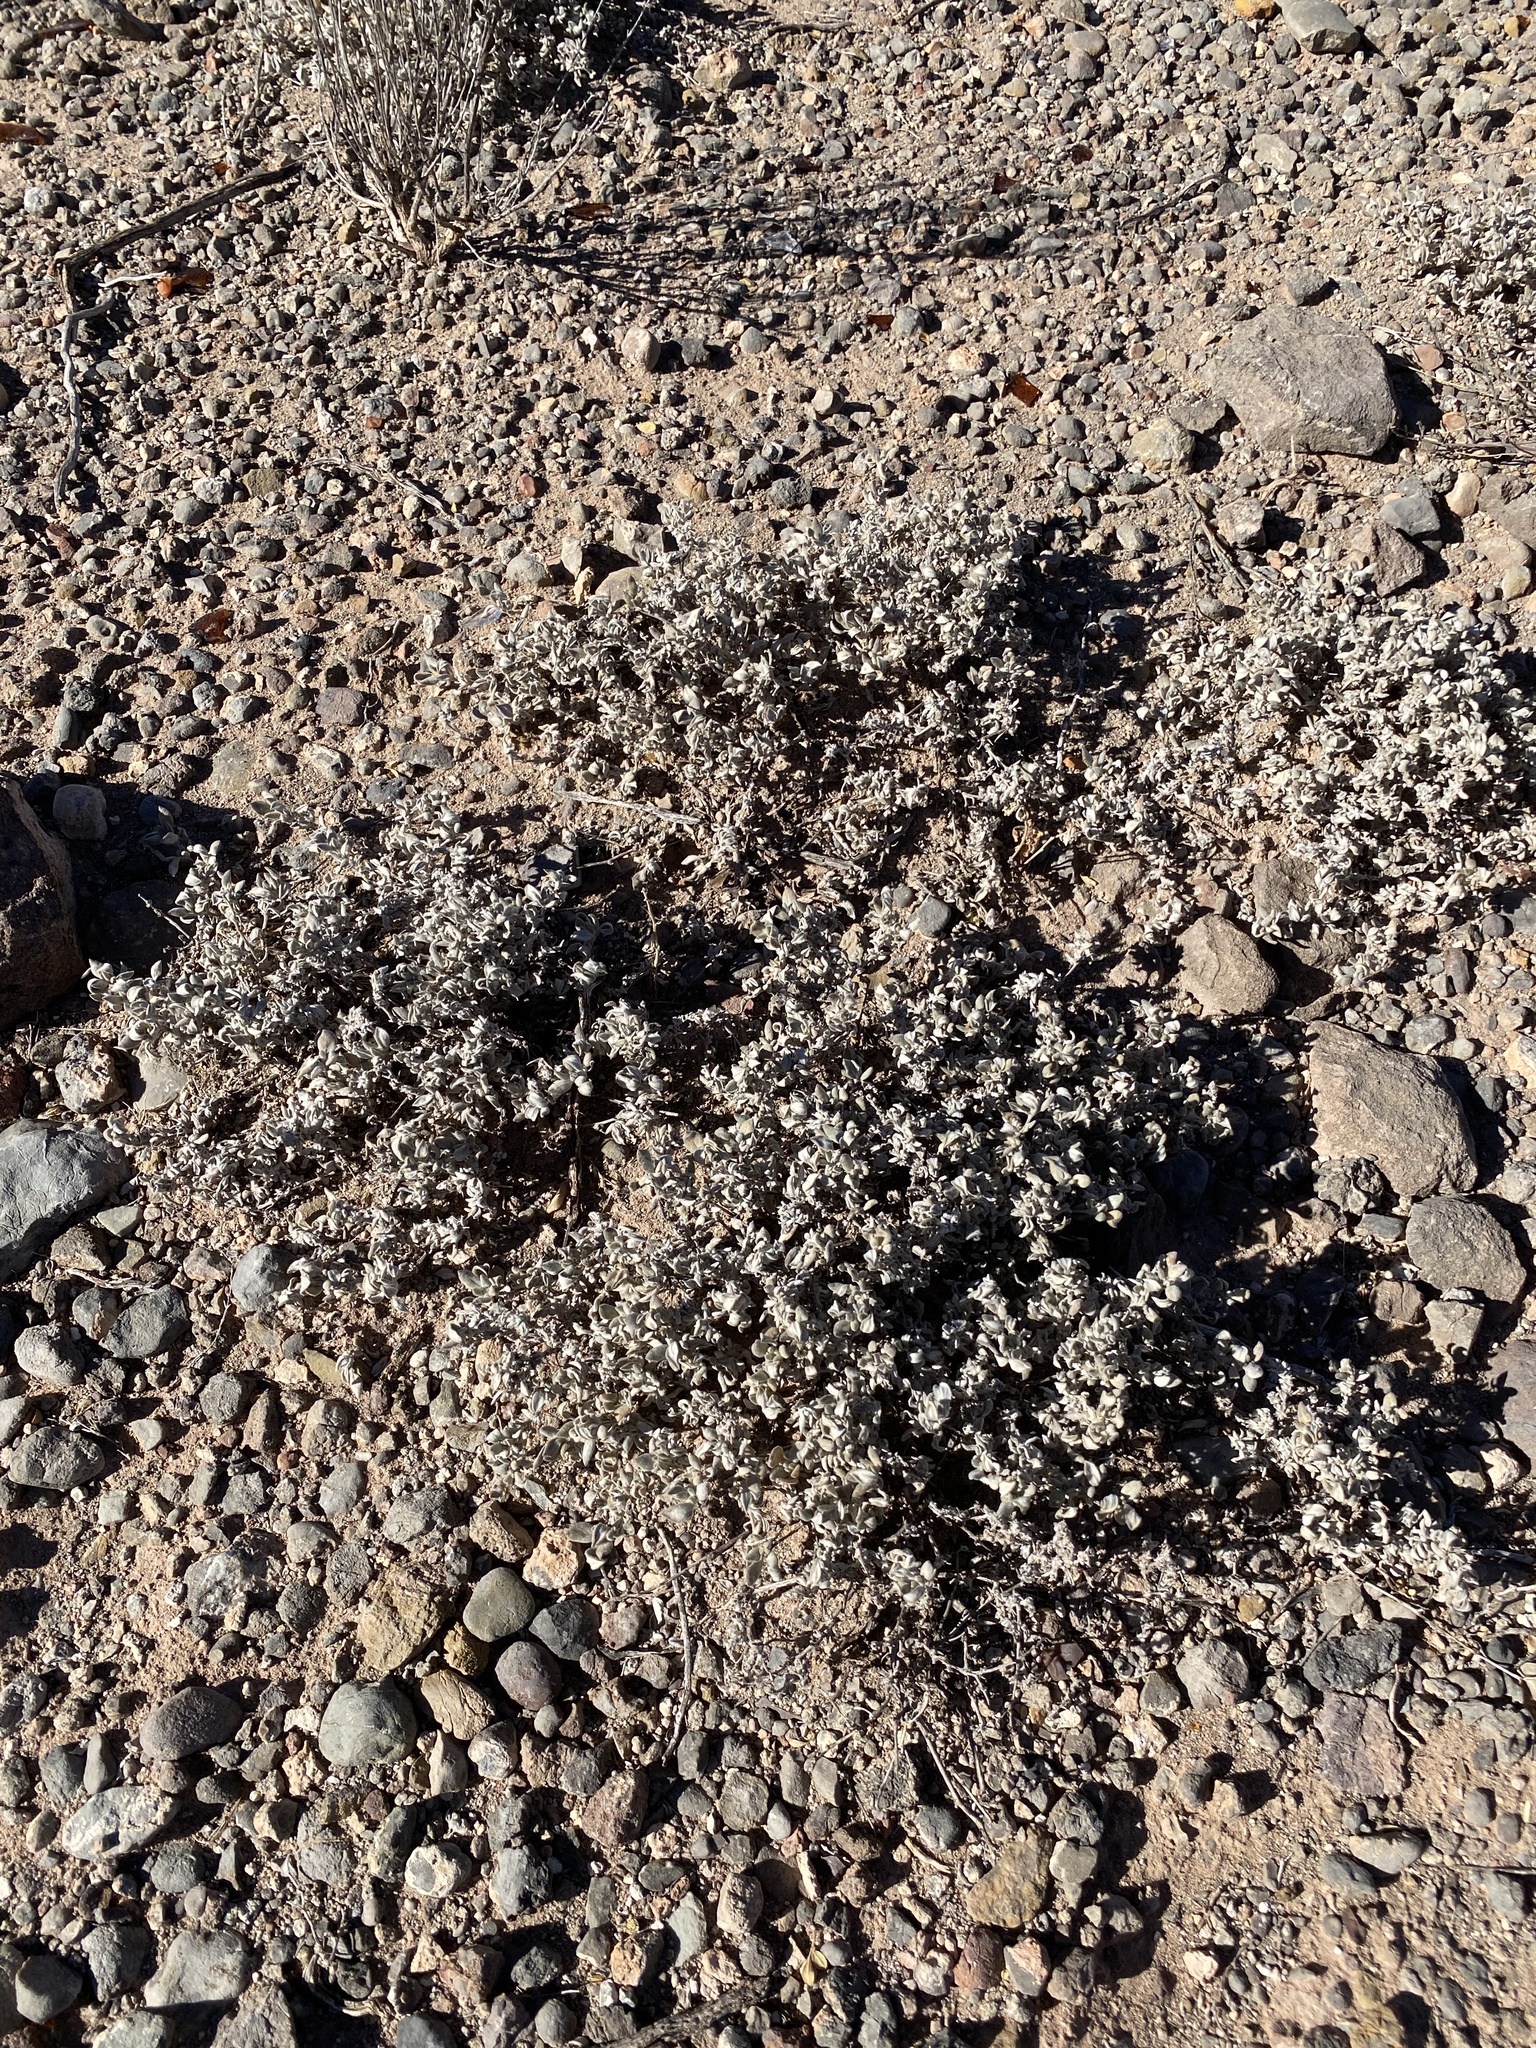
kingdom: Plantae
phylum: Tracheophyta
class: Magnoliopsida
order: Boraginales
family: Ehretiaceae
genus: Tiquilia
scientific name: Tiquilia canescens
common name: Hairy tiquilia
